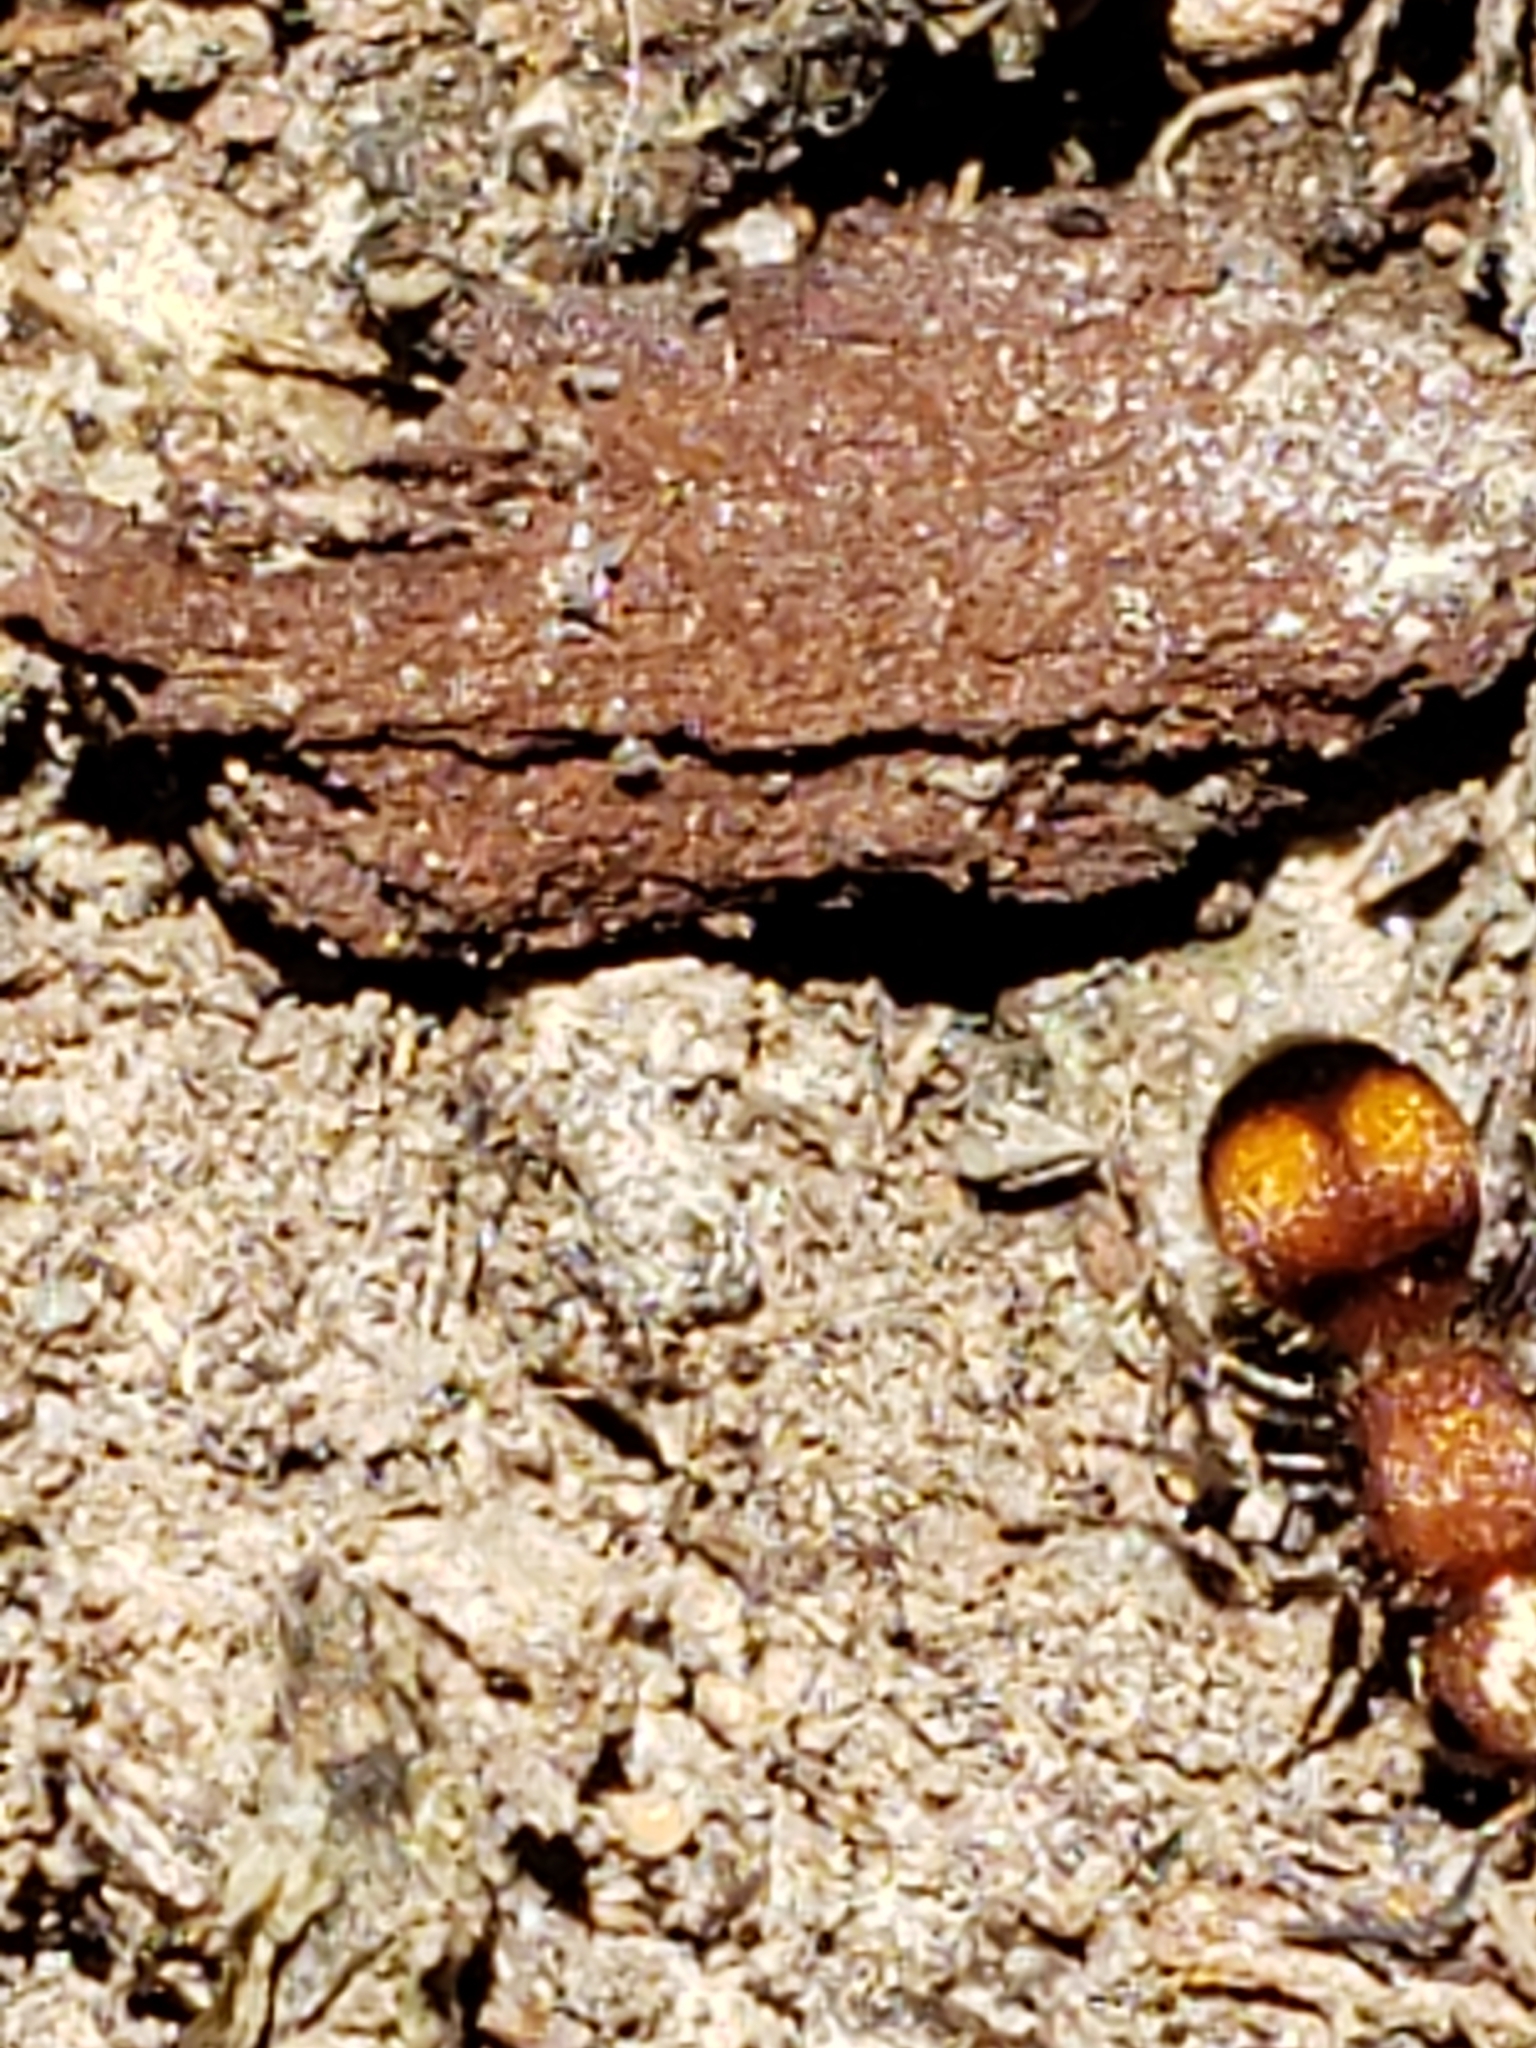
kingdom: Animalia
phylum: Arthropoda
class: Insecta
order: Hymenoptera
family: Mutillidae
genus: Pseudomethoca
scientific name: Pseudomethoca
